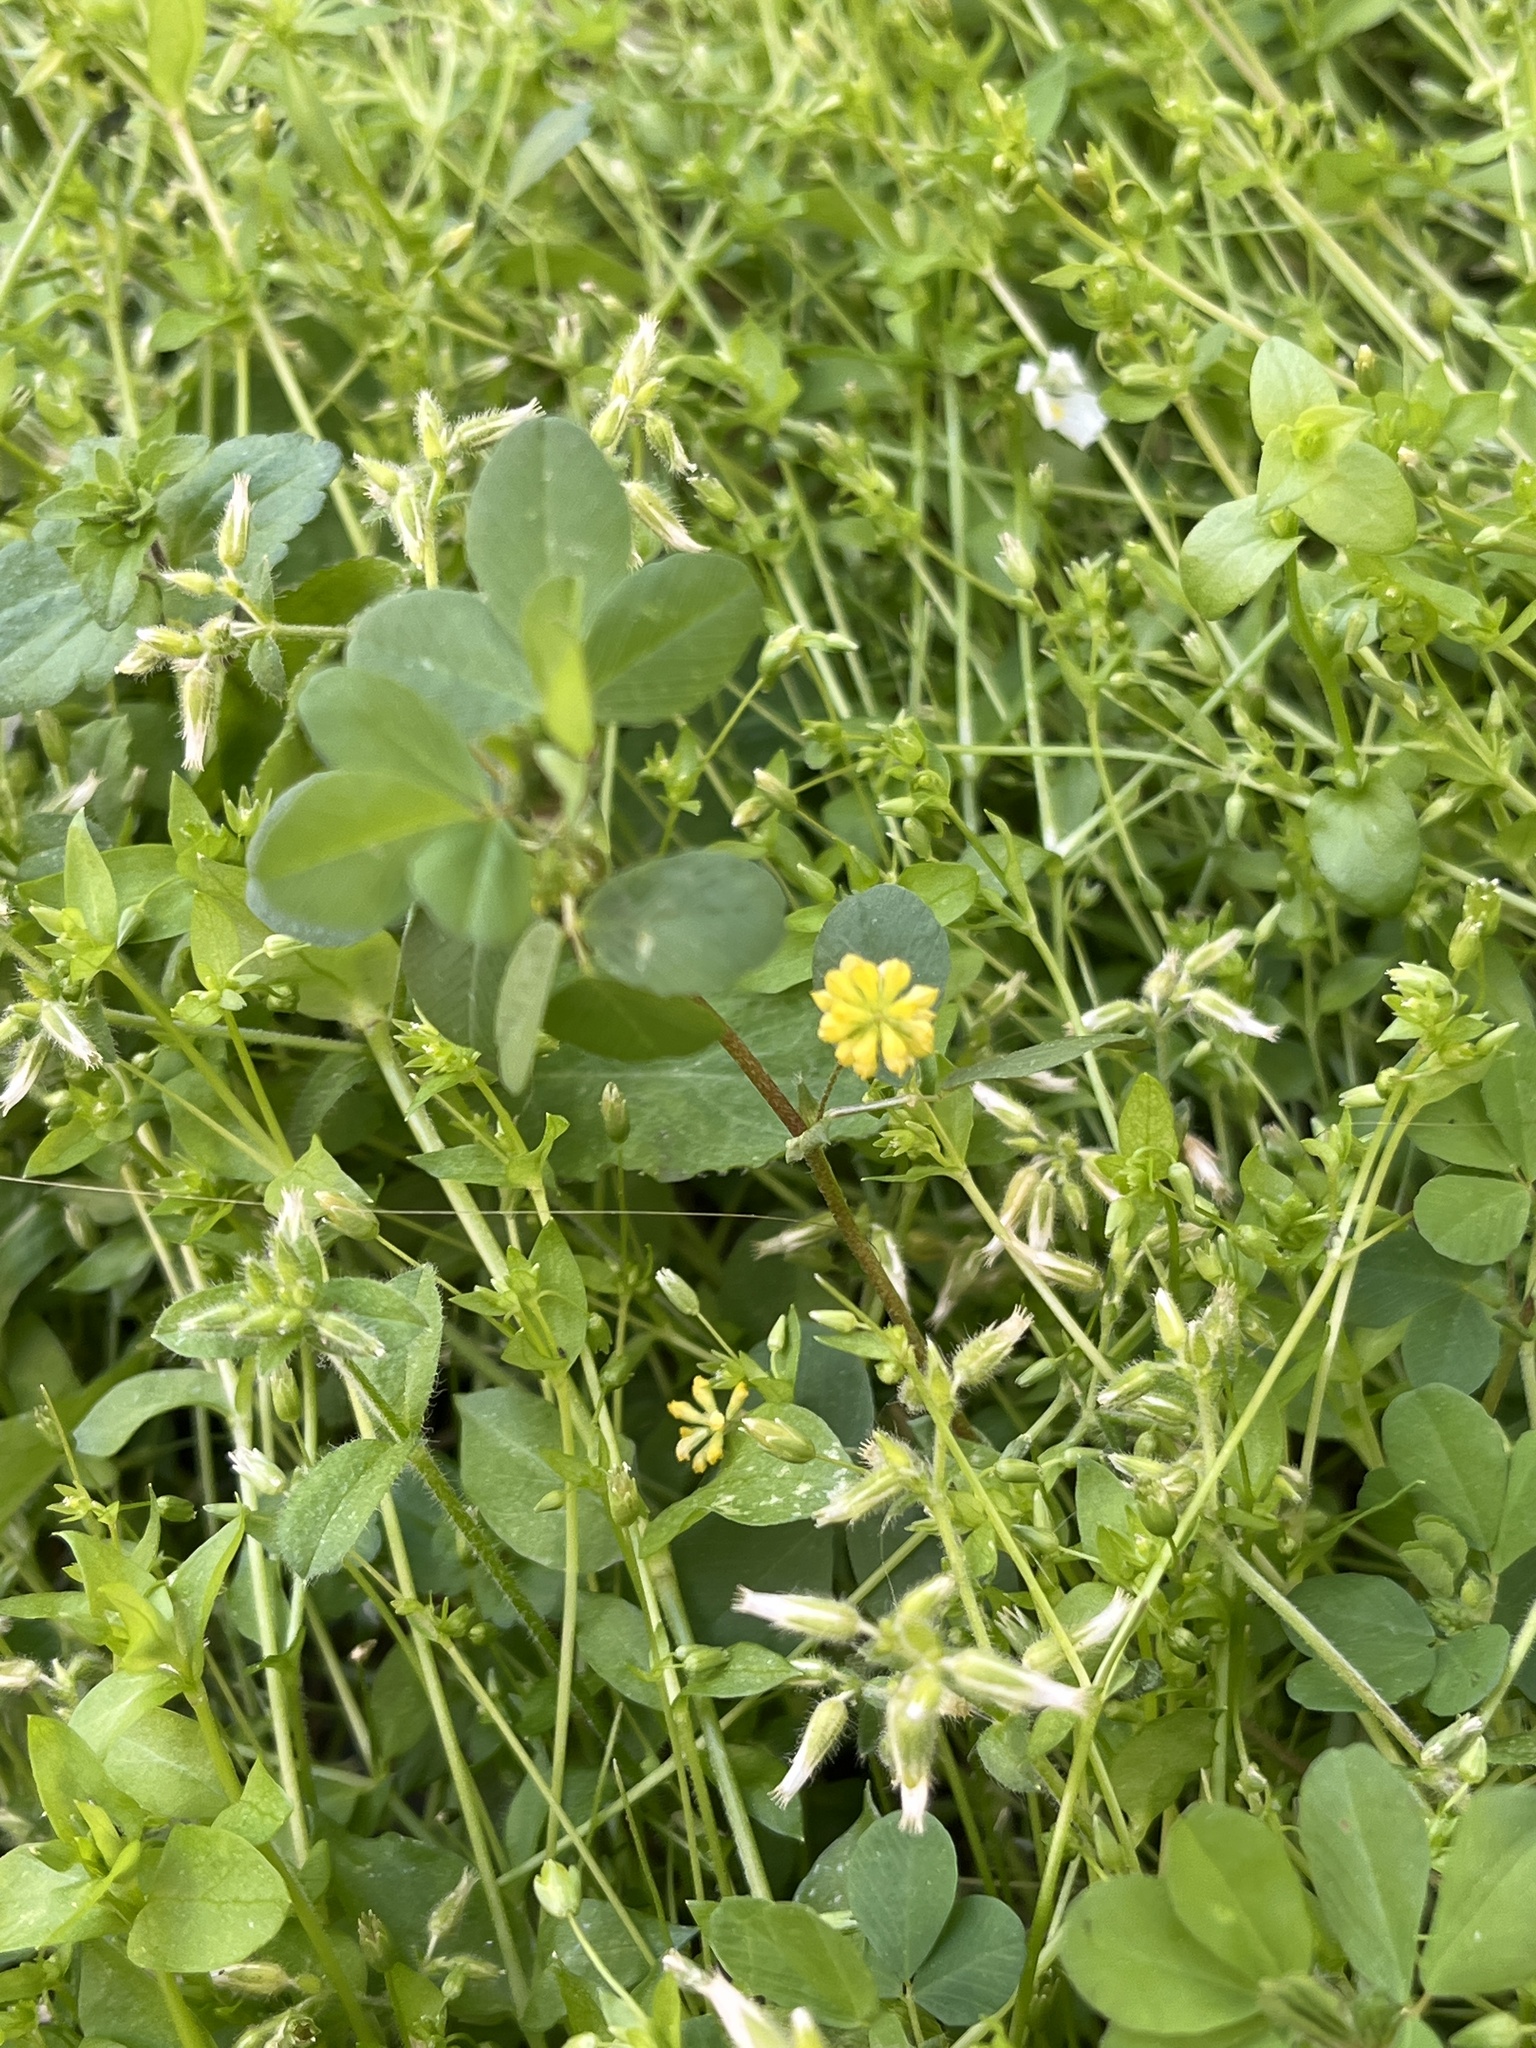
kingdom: Plantae
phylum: Tracheophyta
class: Magnoliopsida
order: Fabales
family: Fabaceae
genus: Trifolium
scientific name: Trifolium dubium
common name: Suckling clover
